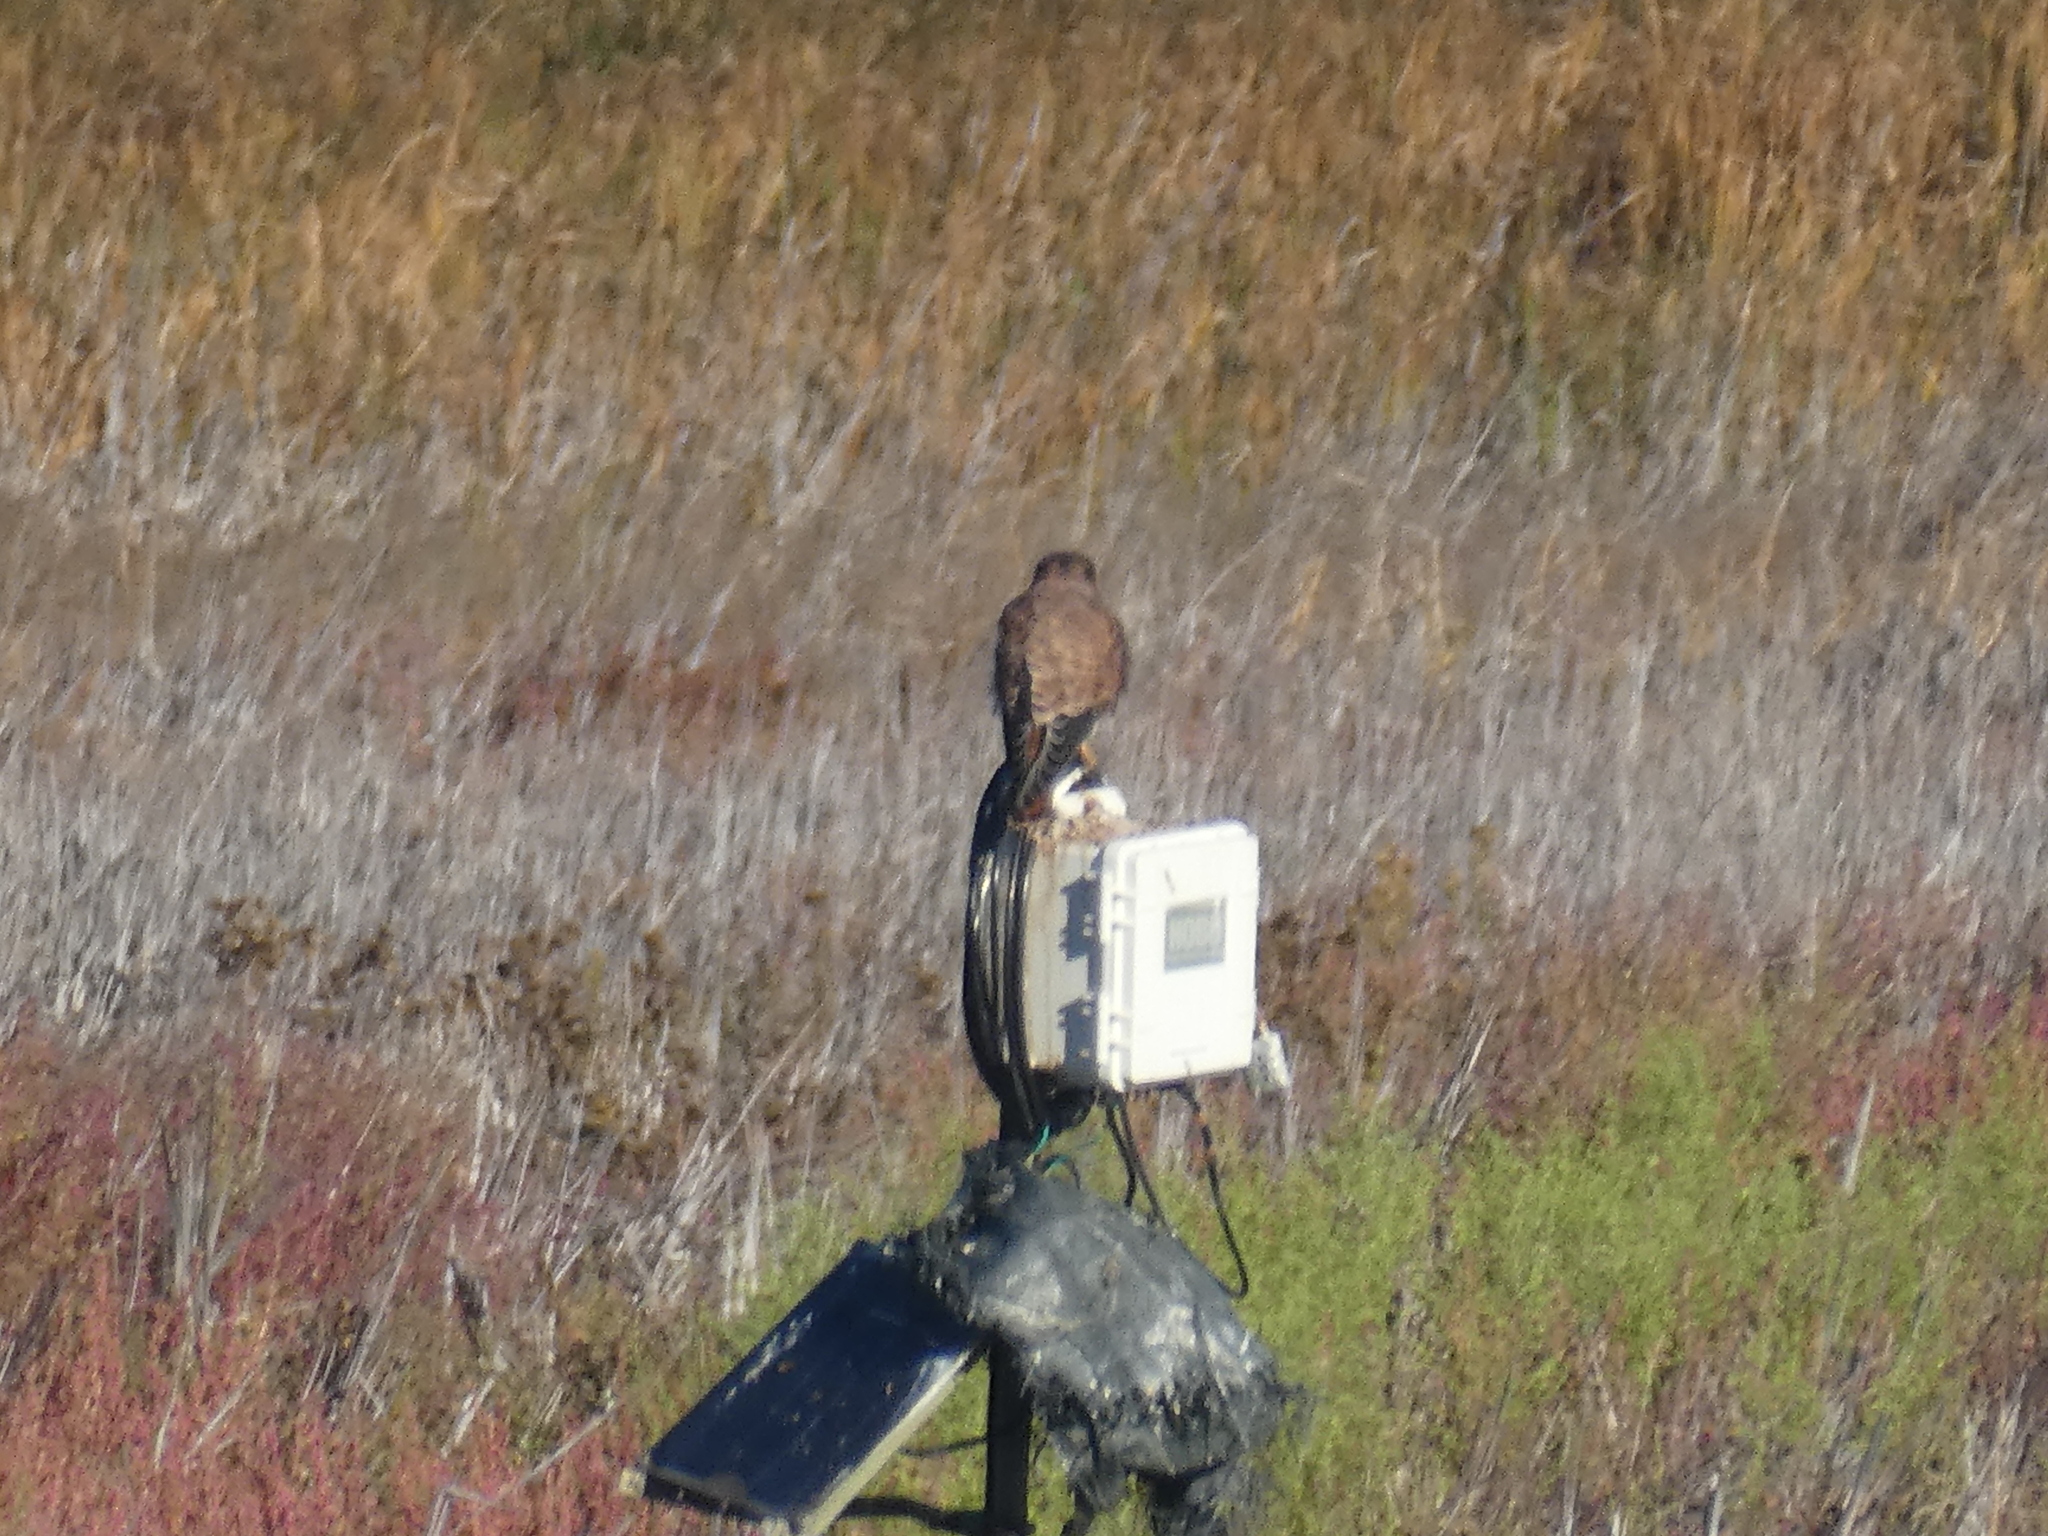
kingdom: Animalia
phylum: Chordata
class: Aves
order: Falconiformes
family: Falconidae
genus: Falco
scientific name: Falco sparverius
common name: American kestrel
